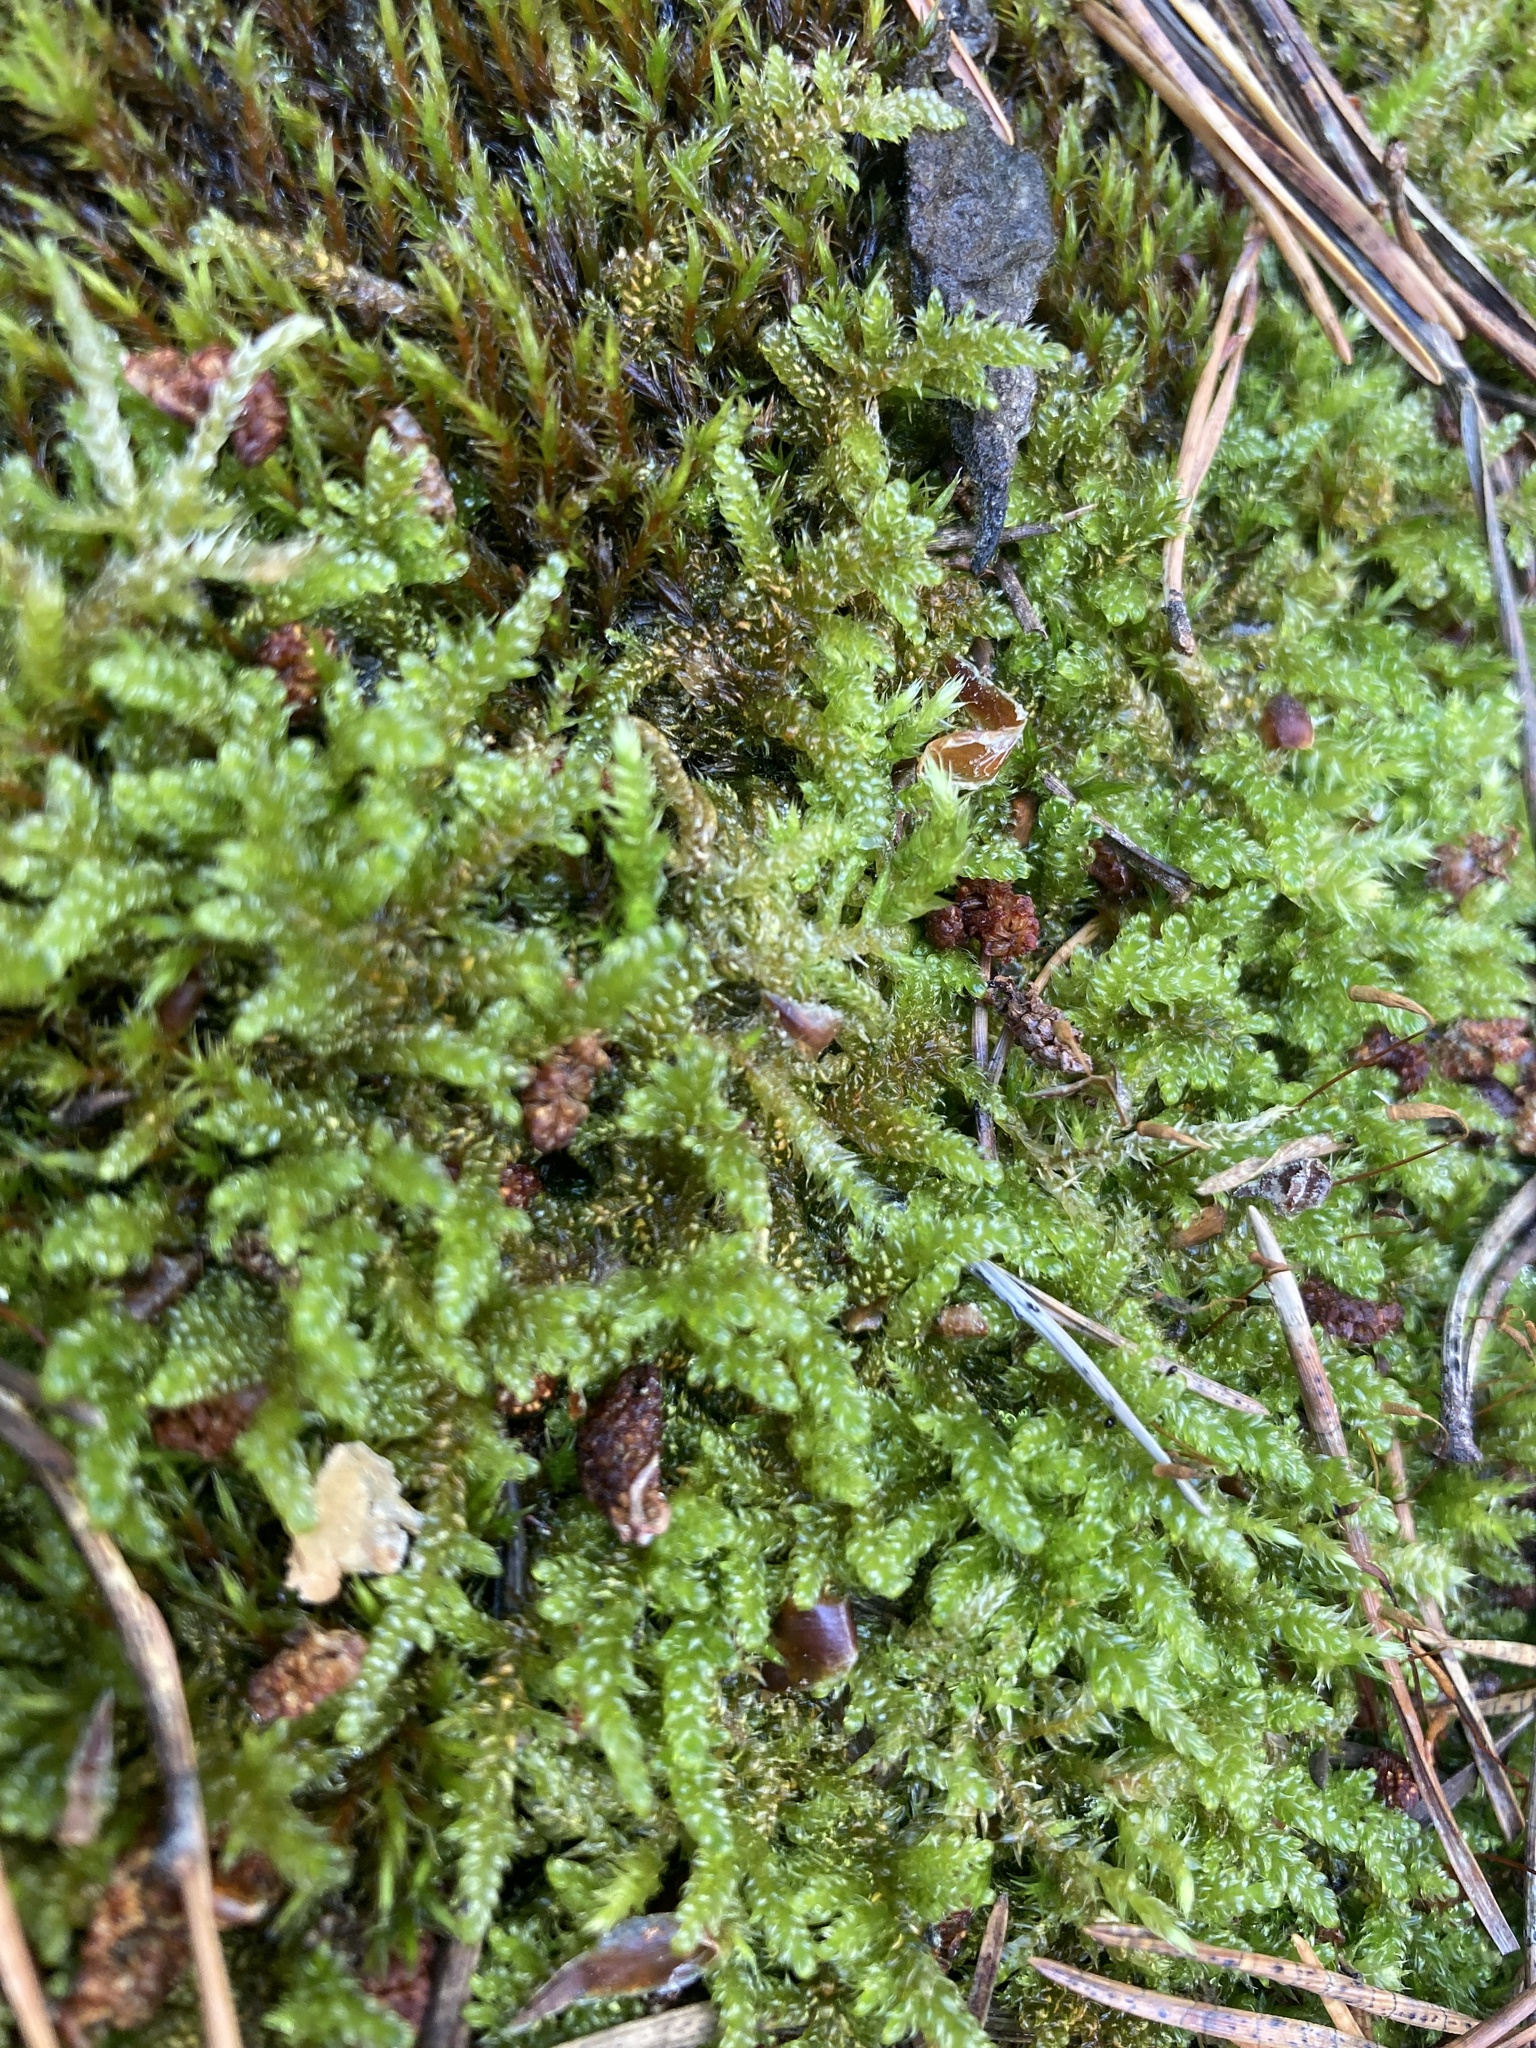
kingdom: Plantae
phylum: Bryophyta
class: Bryopsida
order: Hypnales
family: Hypnaceae
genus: Hypnum
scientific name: Hypnum cupressiforme
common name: Cypress-leaved plait-moss
